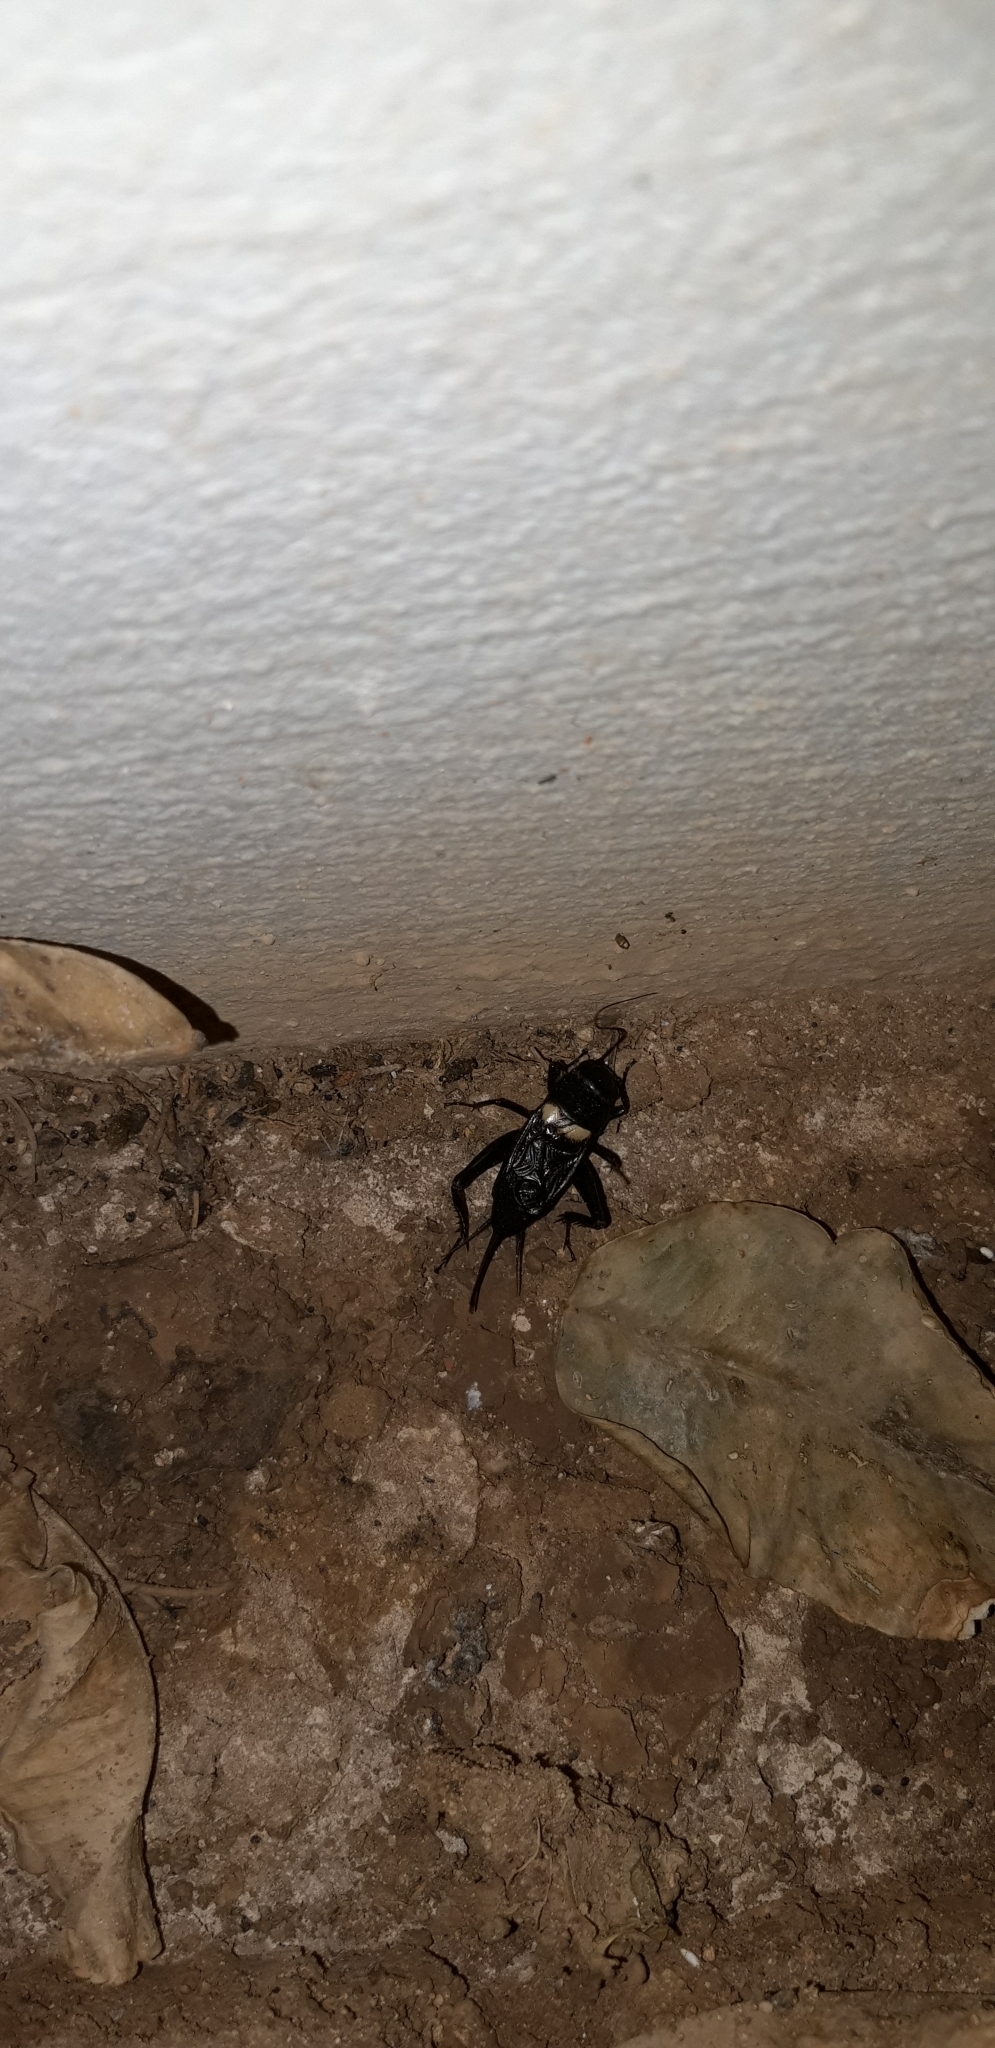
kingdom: Animalia
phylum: Arthropoda
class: Insecta
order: Orthoptera
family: Gryllidae
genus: Gryllus
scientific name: Gryllus bimaculatus
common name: Two-spotted cricket
